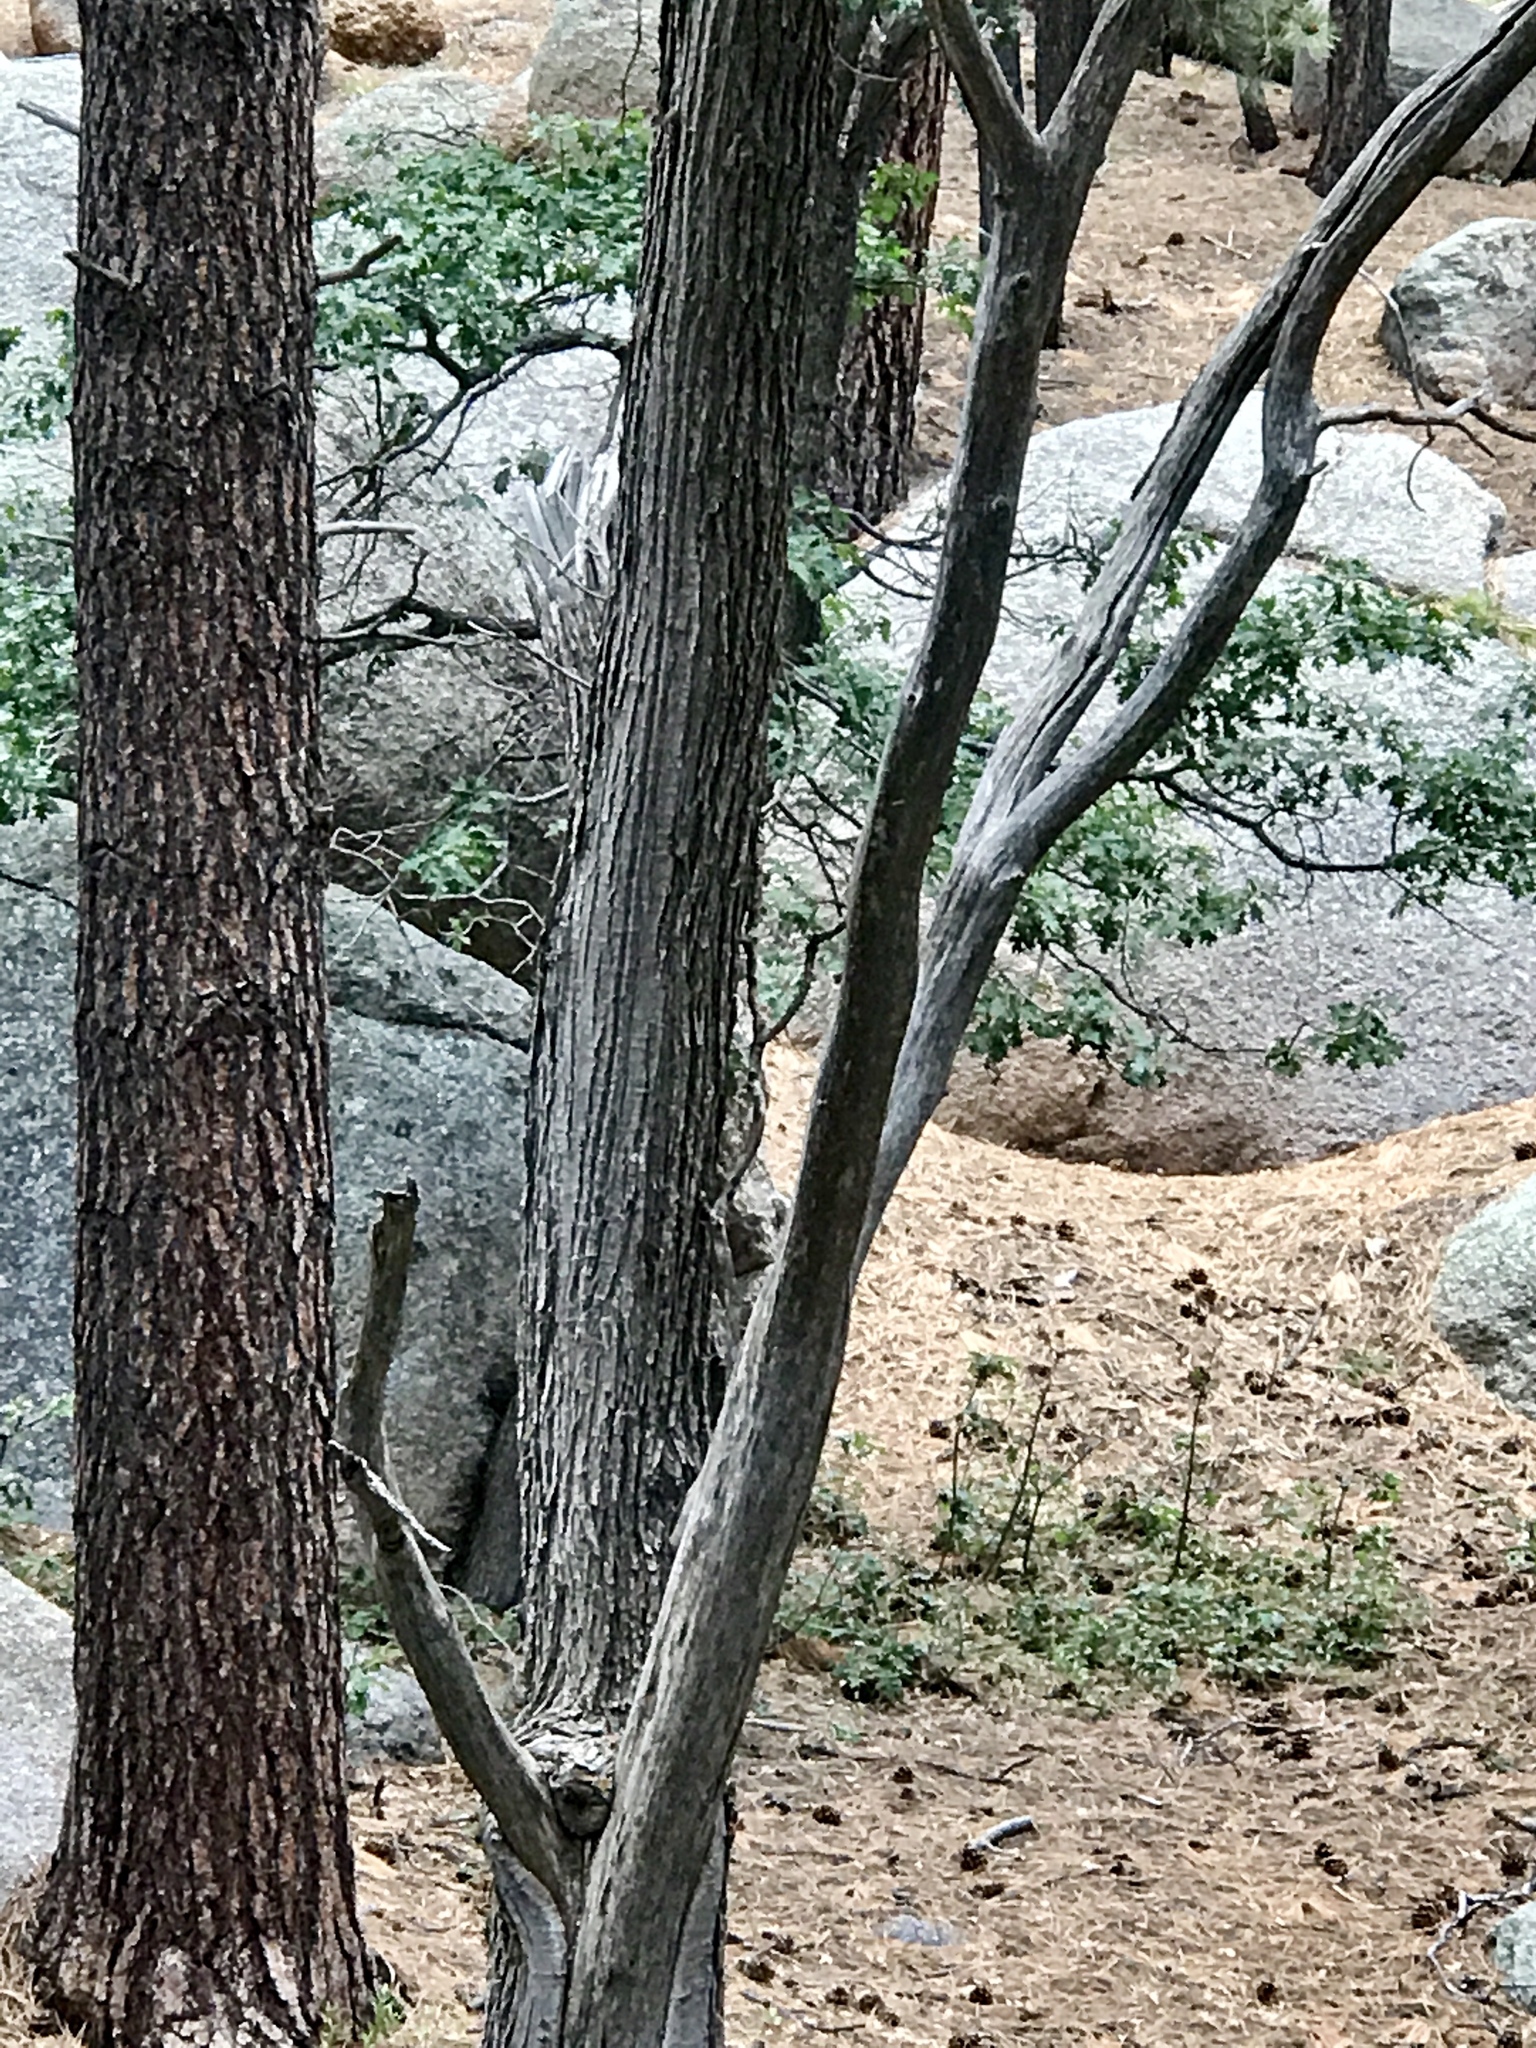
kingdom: Plantae
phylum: Tracheophyta
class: Magnoliopsida
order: Fagales
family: Fagaceae
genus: Quercus
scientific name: Quercus gambelii
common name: Gambel oak
